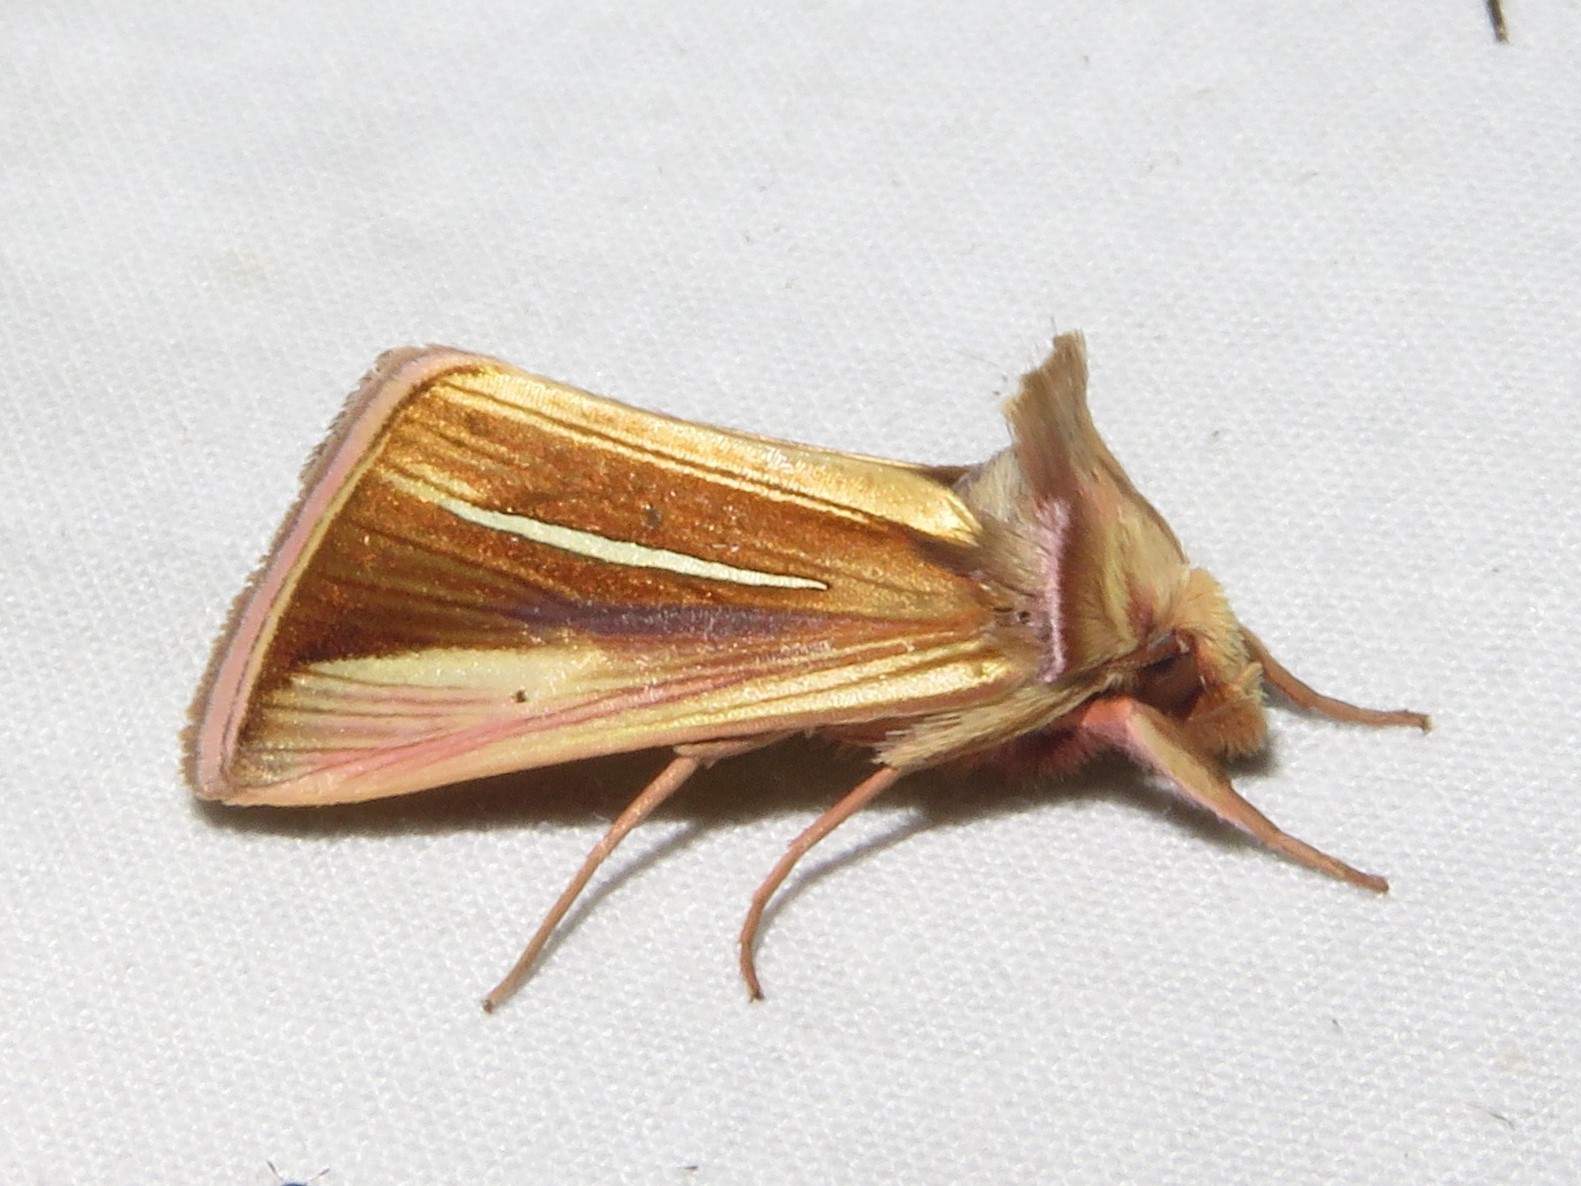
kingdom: Animalia
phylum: Arthropoda
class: Insecta
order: Lepidoptera
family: Noctuidae
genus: Plusia
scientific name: Plusia venusta
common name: White-streaked looper moth
